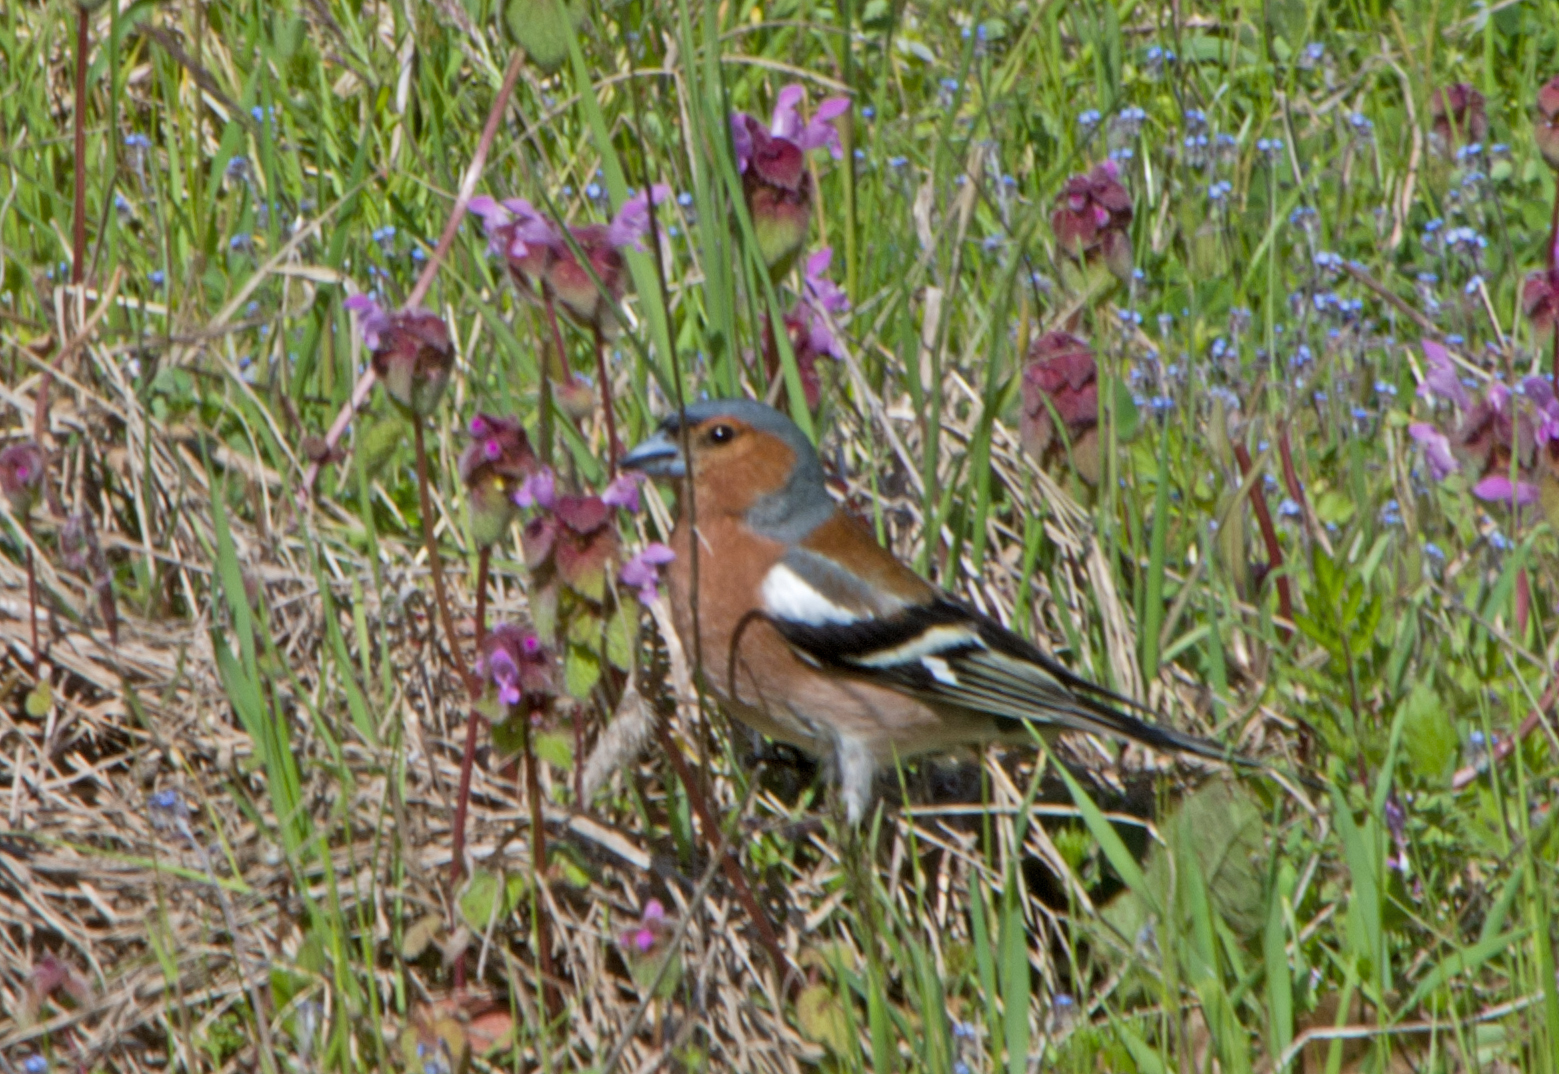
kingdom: Animalia
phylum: Chordata
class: Aves
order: Passeriformes
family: Fringillidae
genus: Fringilla
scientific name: Fringilla coelebs
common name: Common chaffinch
